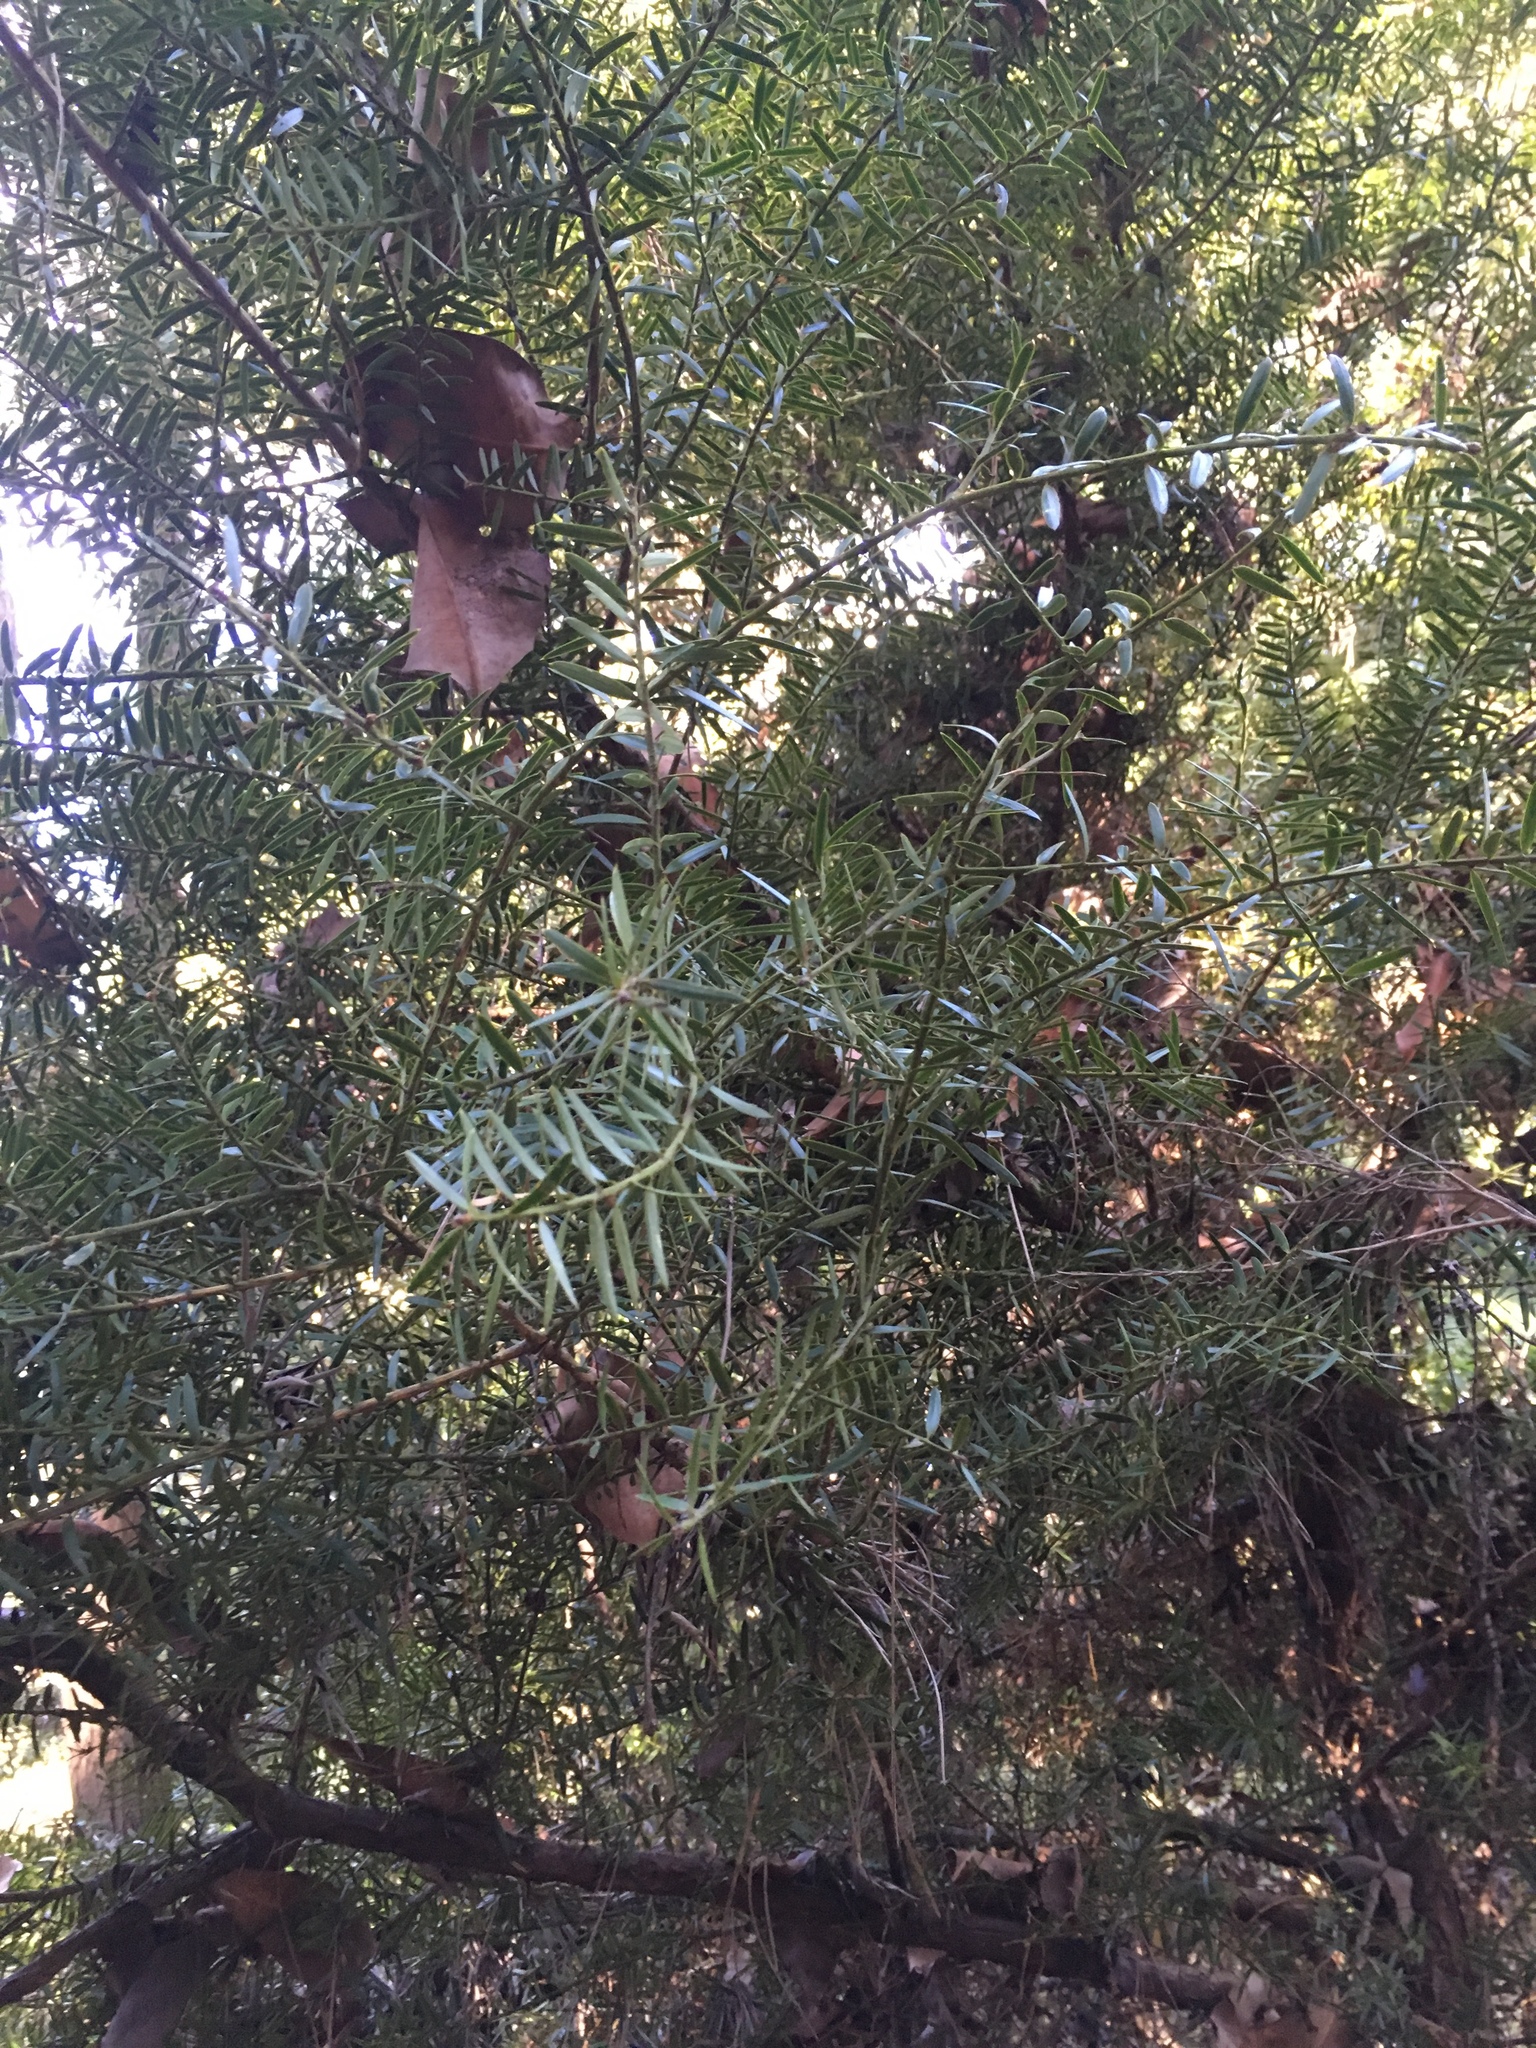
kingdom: Plantae
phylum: Tracheophyta
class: Pinopsida
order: Pinales
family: Podocarpaceae
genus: Podocarpus
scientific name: Podocarpus totara
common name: Totara
